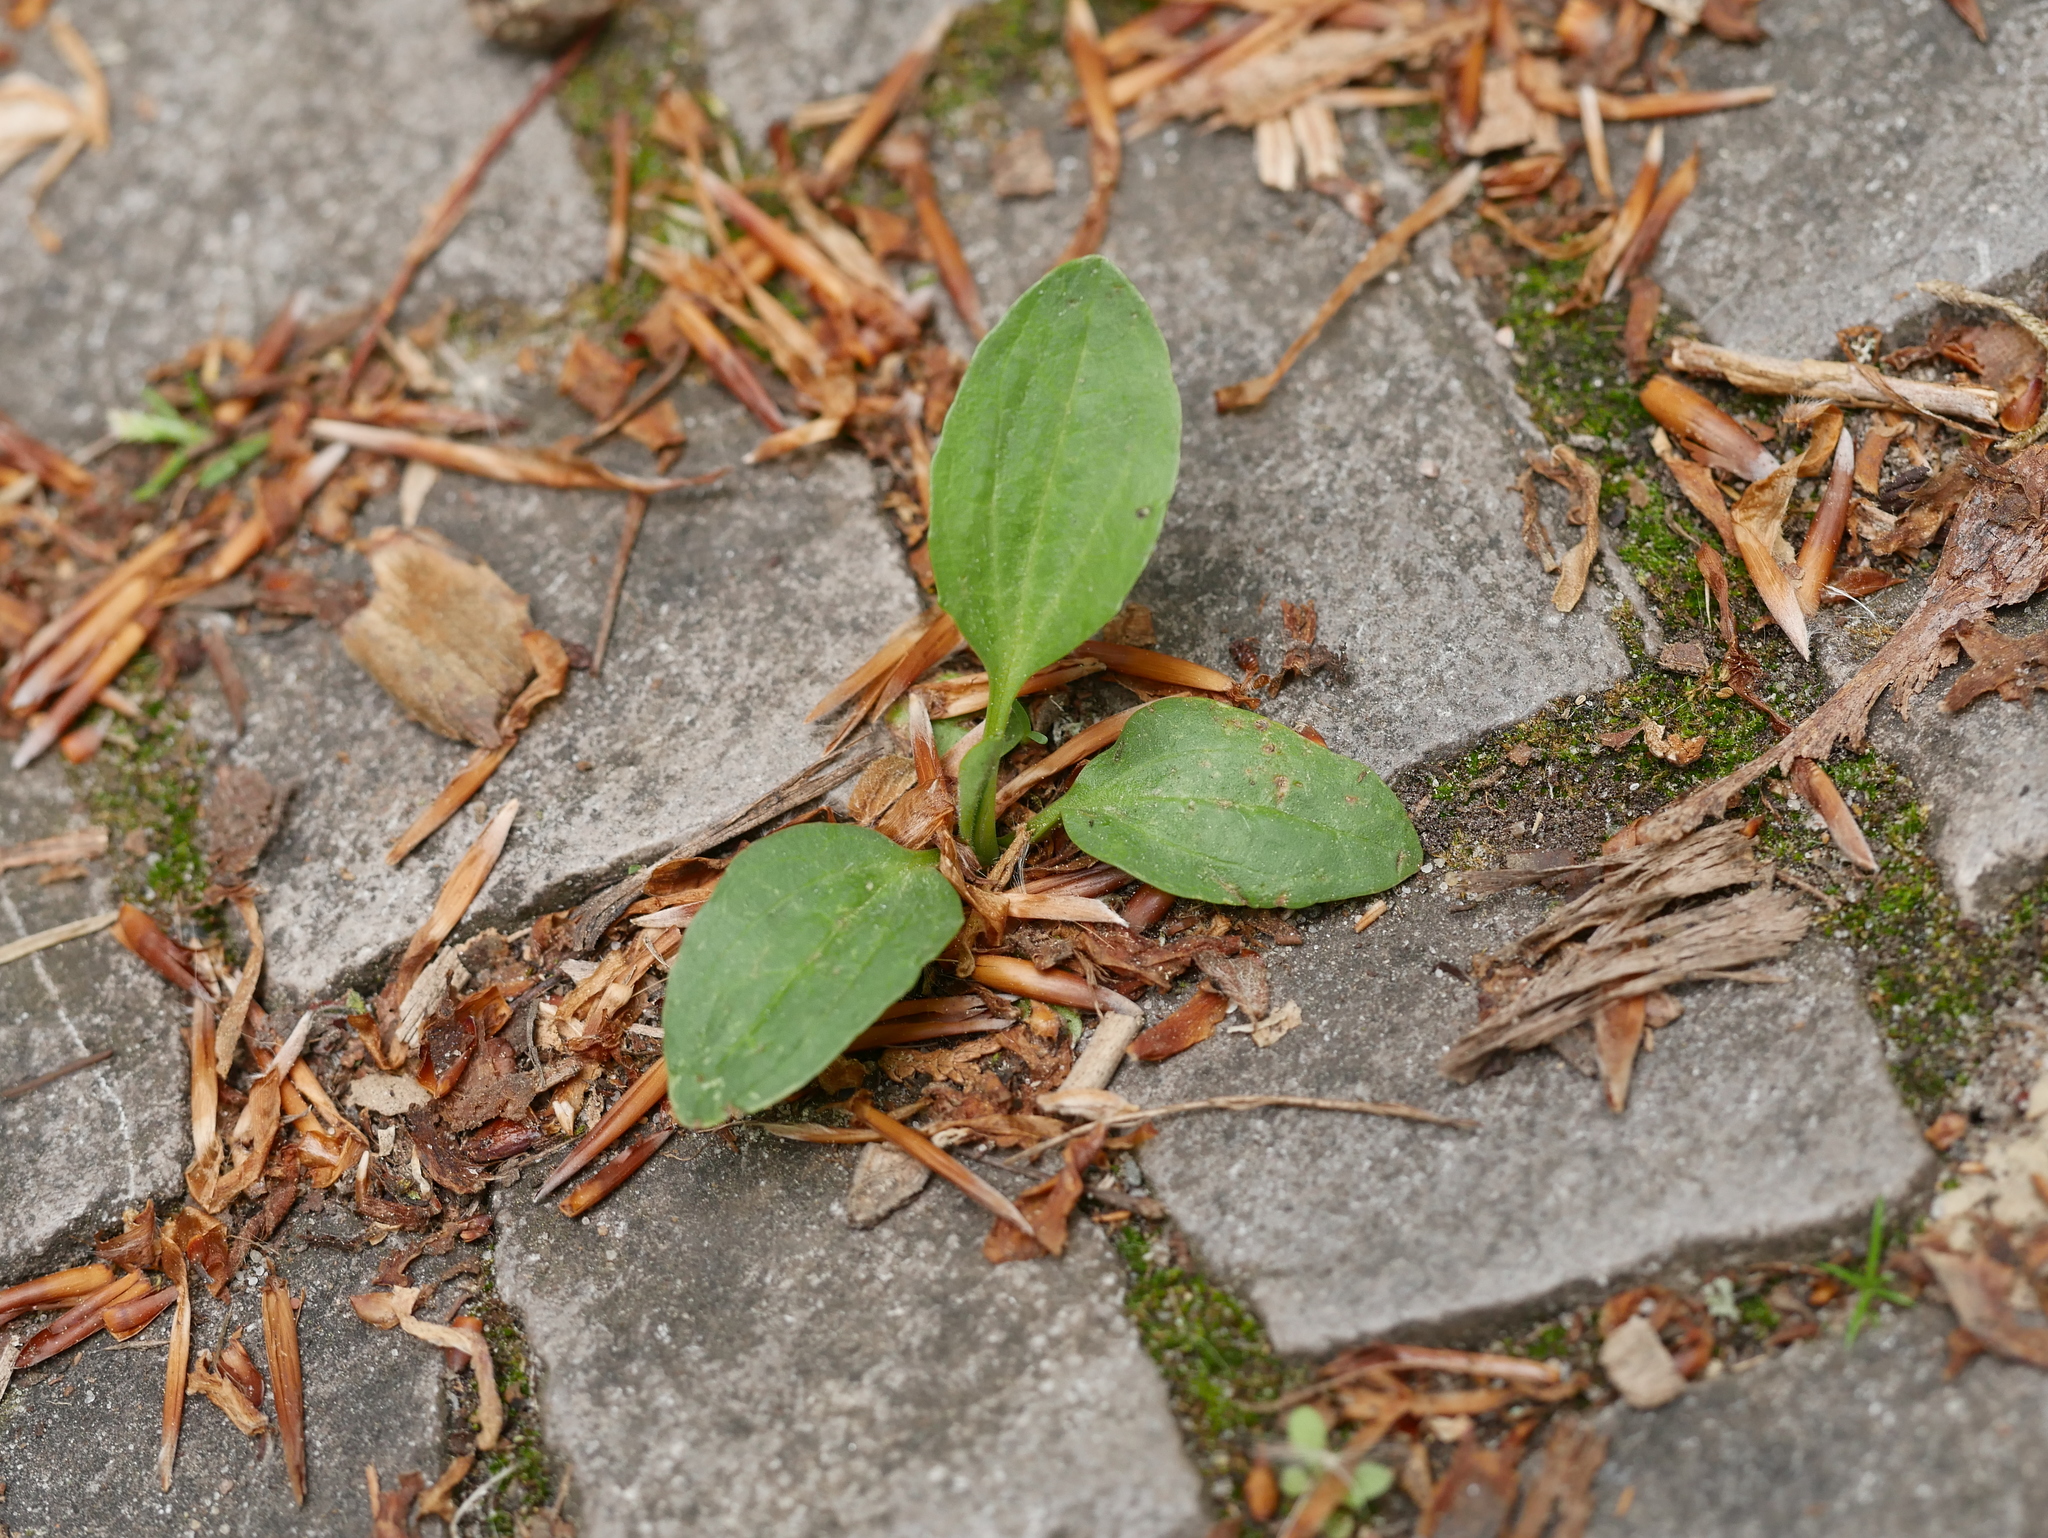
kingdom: Plantae
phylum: Tracheophyta
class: Magnoliopsida
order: Lamiales
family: Plantaginaceae
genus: Plantago
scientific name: Plantago major
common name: Common plantain
